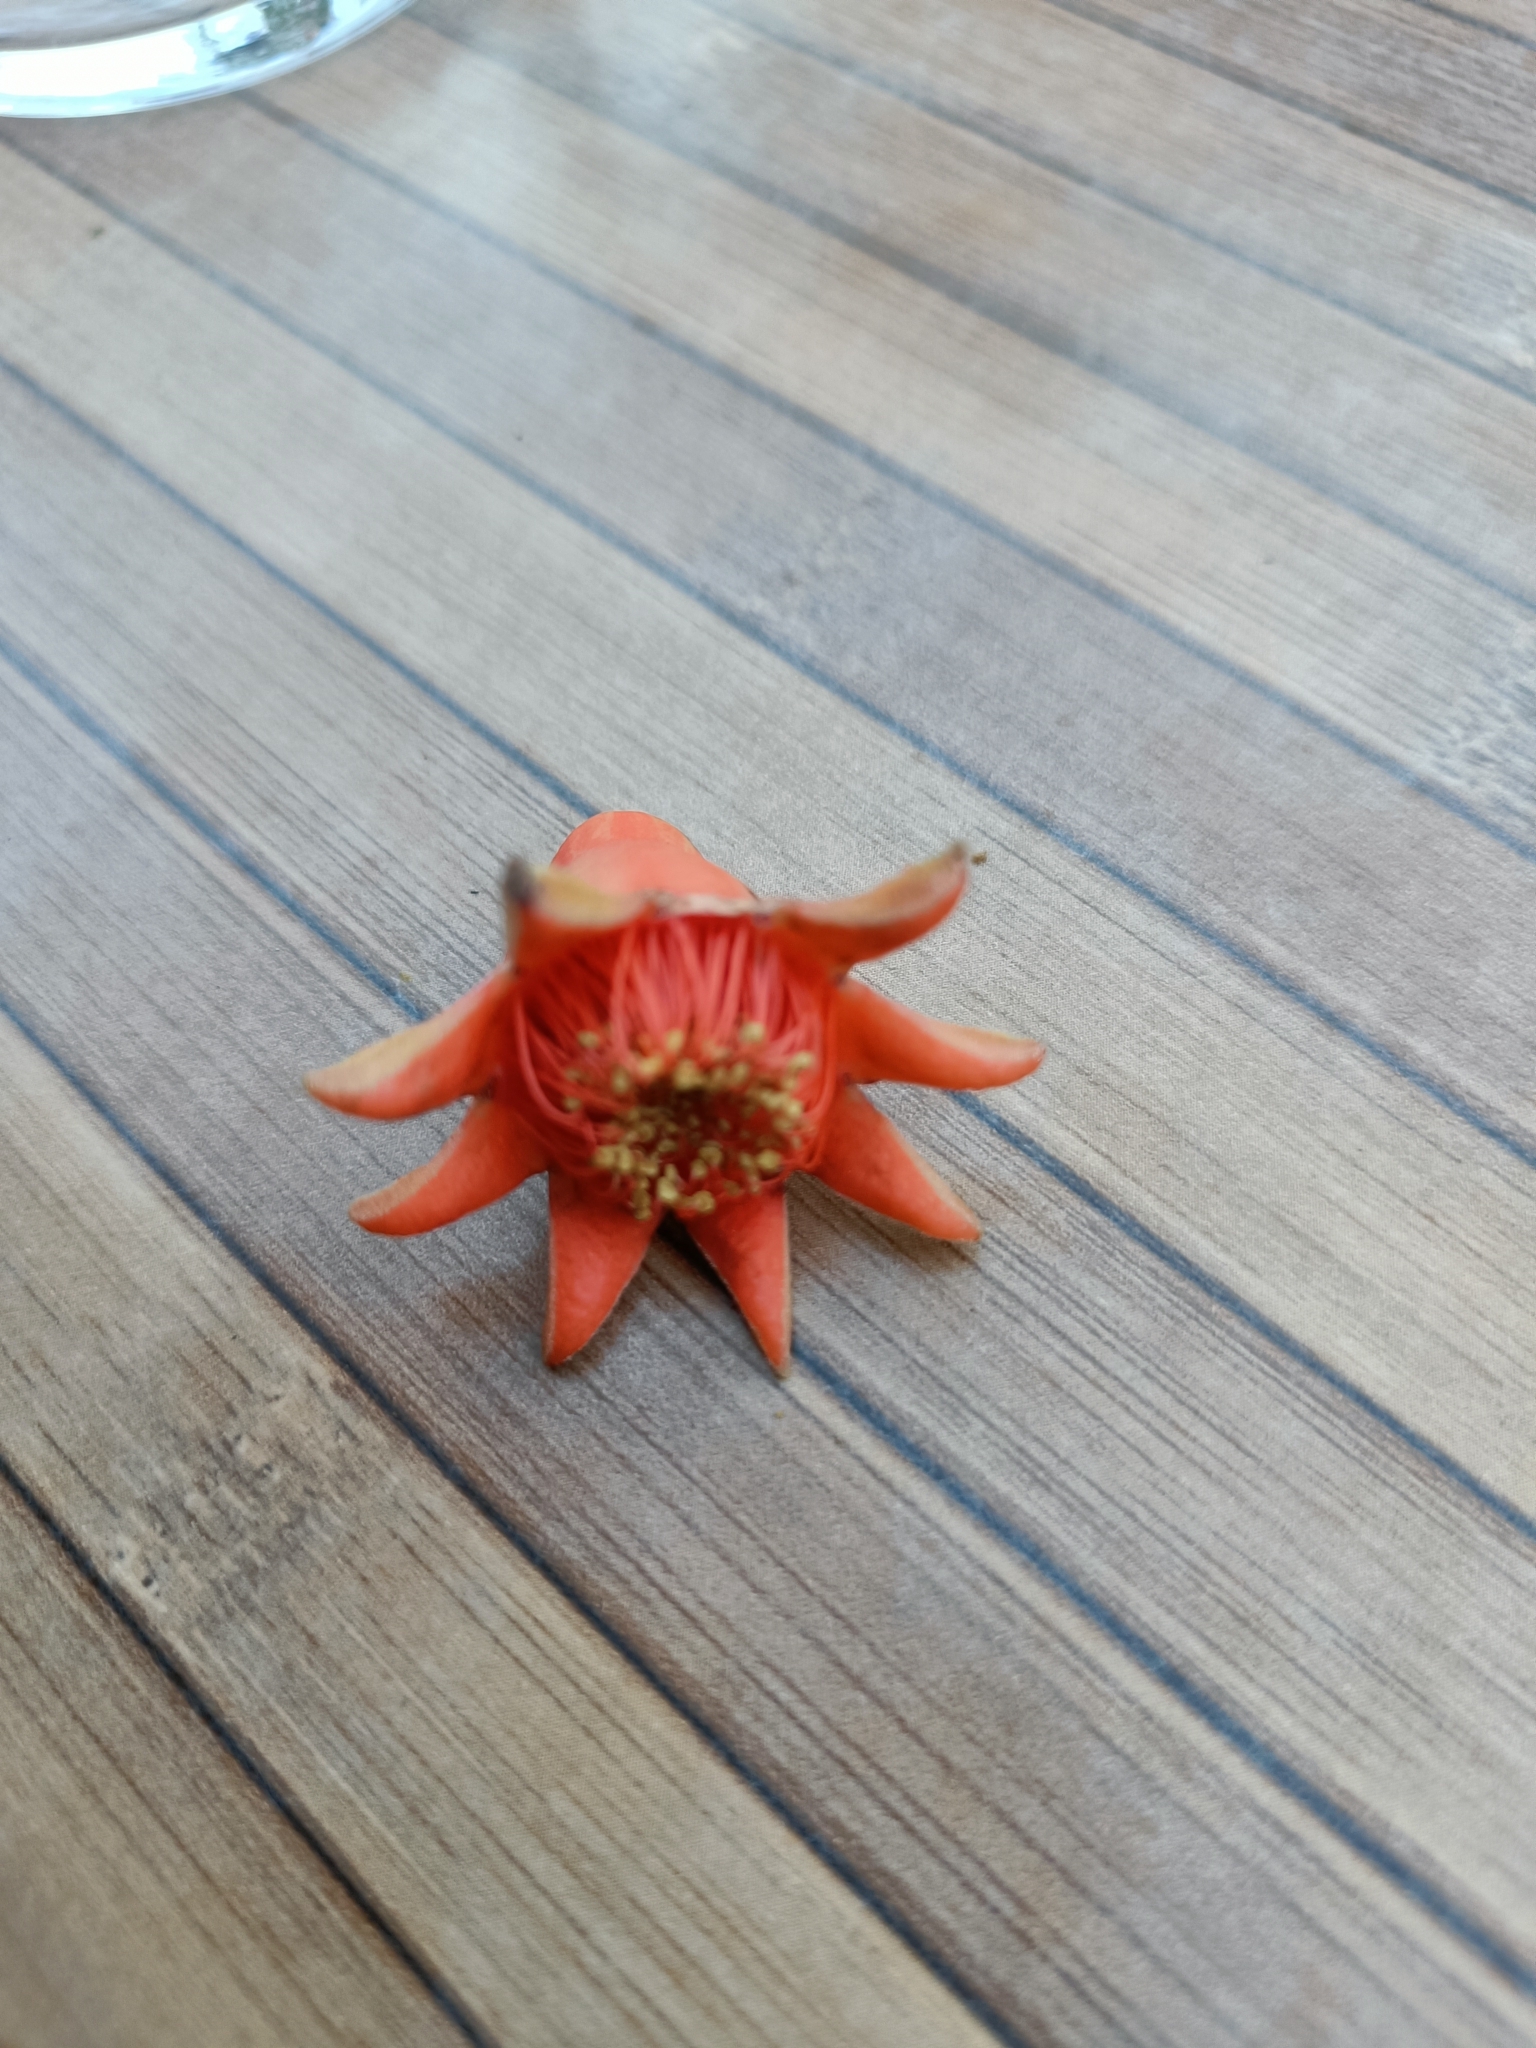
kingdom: Plantae
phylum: Tracheophyta
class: Magnoliopsida
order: Myrtales
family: Lythraceae
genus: Punica
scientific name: Punica granatum
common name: Pomegranate
